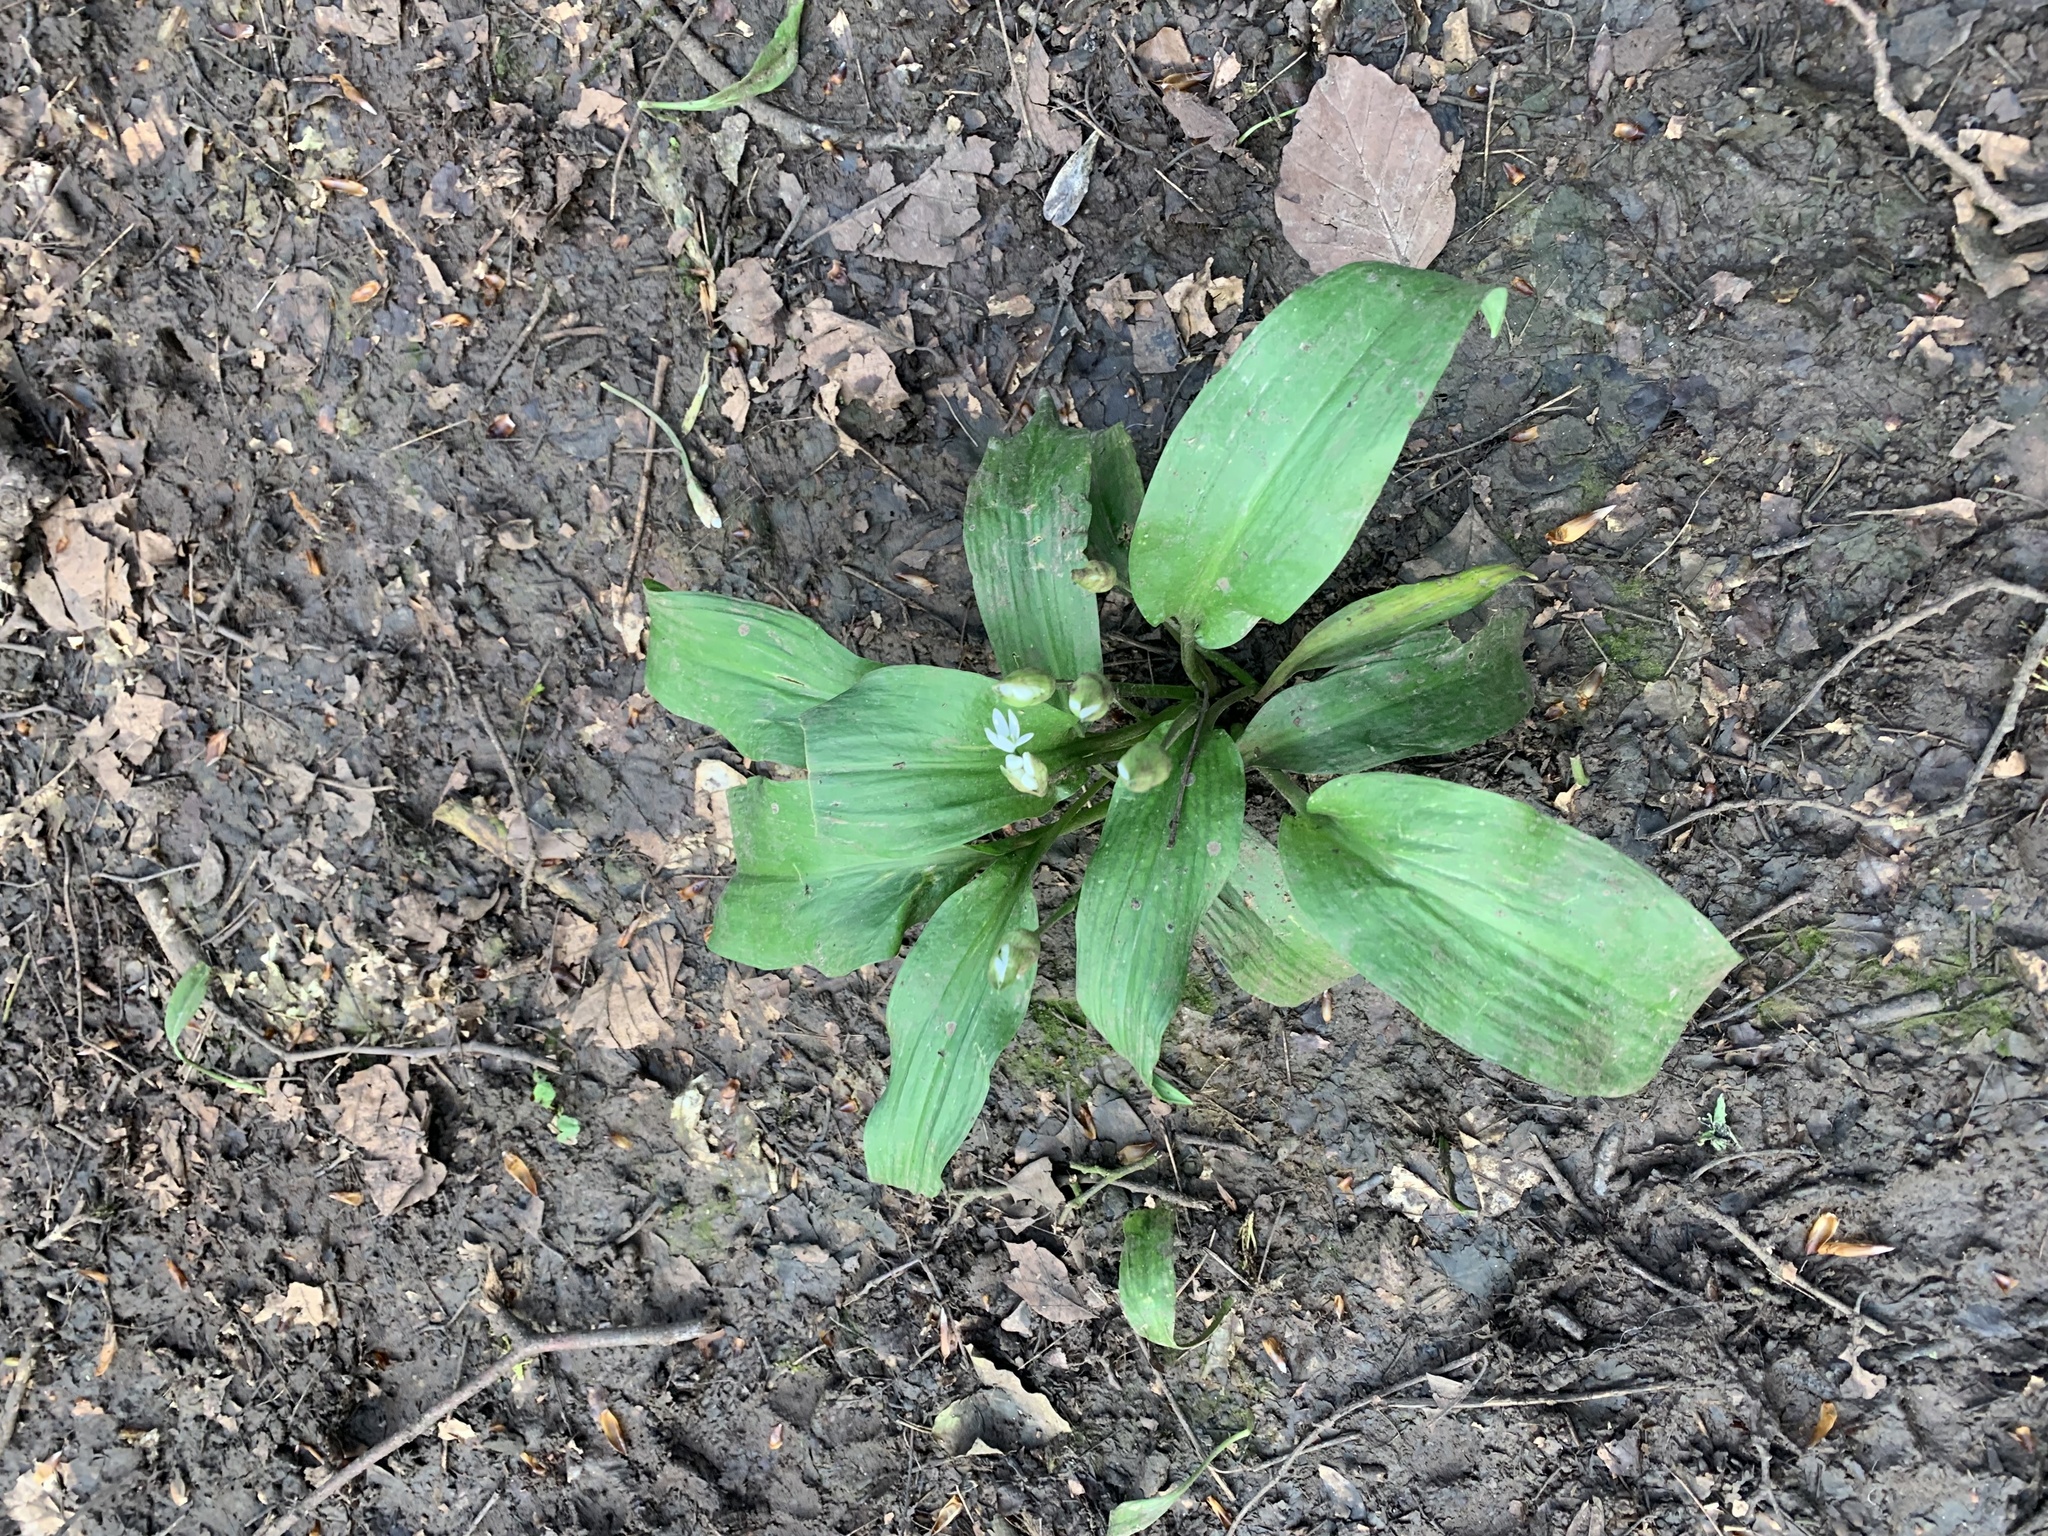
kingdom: Plantae
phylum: Tracheophyta
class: Liliopsida
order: Asparagales
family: Amaryllidaceae
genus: Allium
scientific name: Allium ursinum
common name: Ramsons
